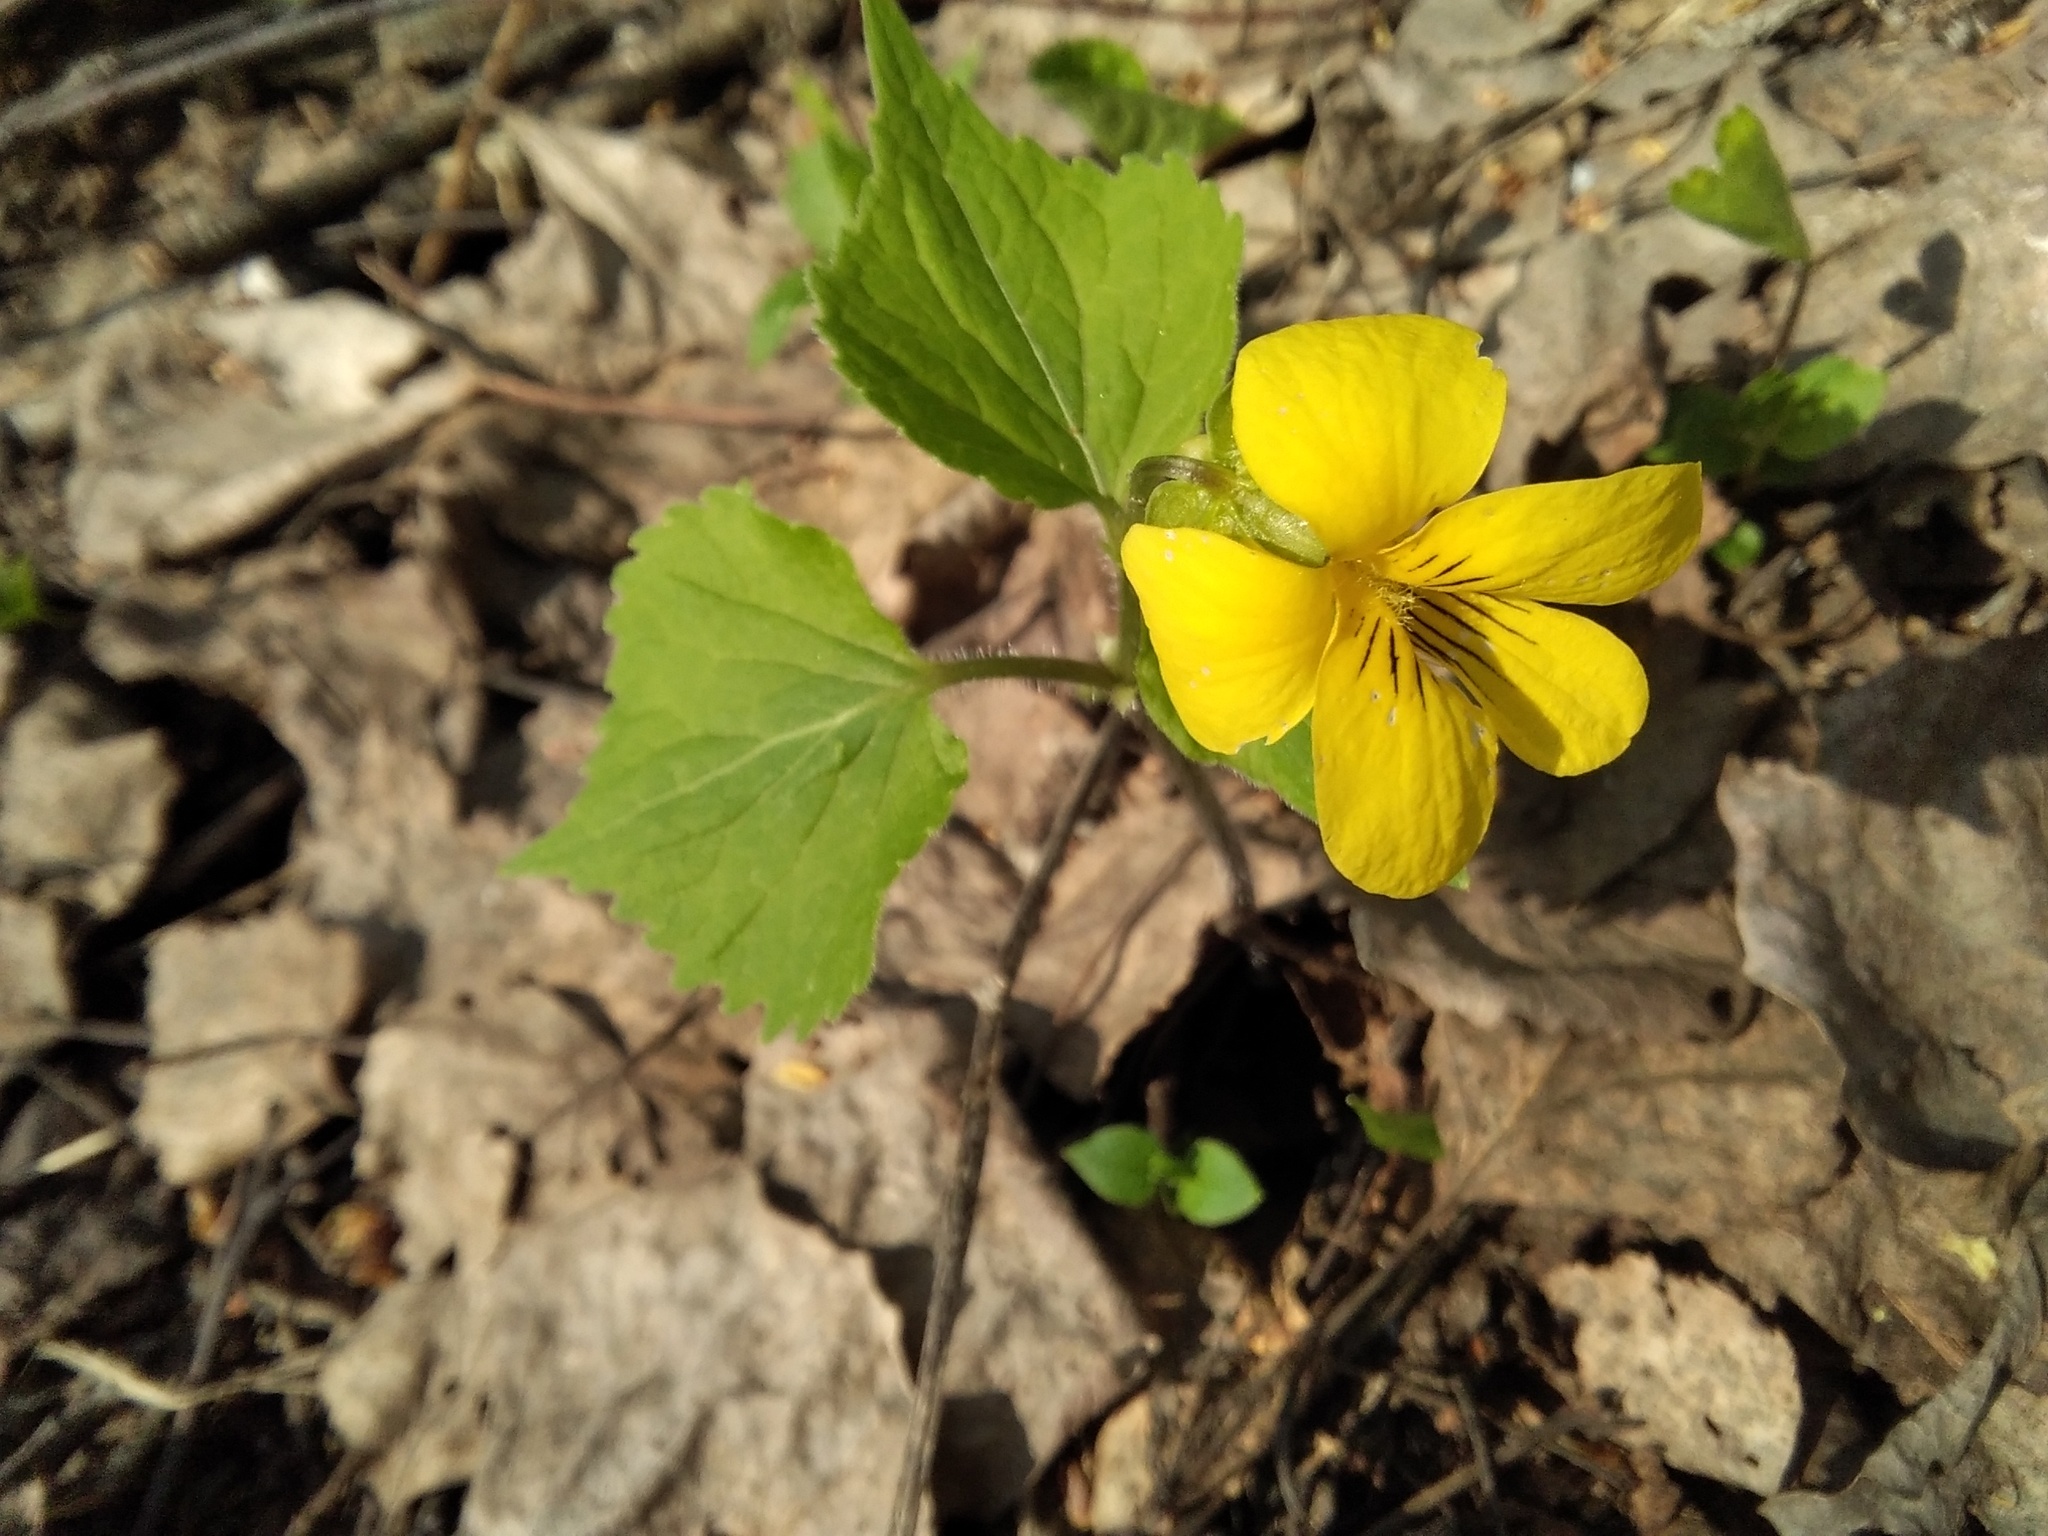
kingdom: Plantae
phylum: Tracheophyta
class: Magnoliopsida
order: Malpighiales
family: Violaceae
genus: Viola
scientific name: Viola uniflora
